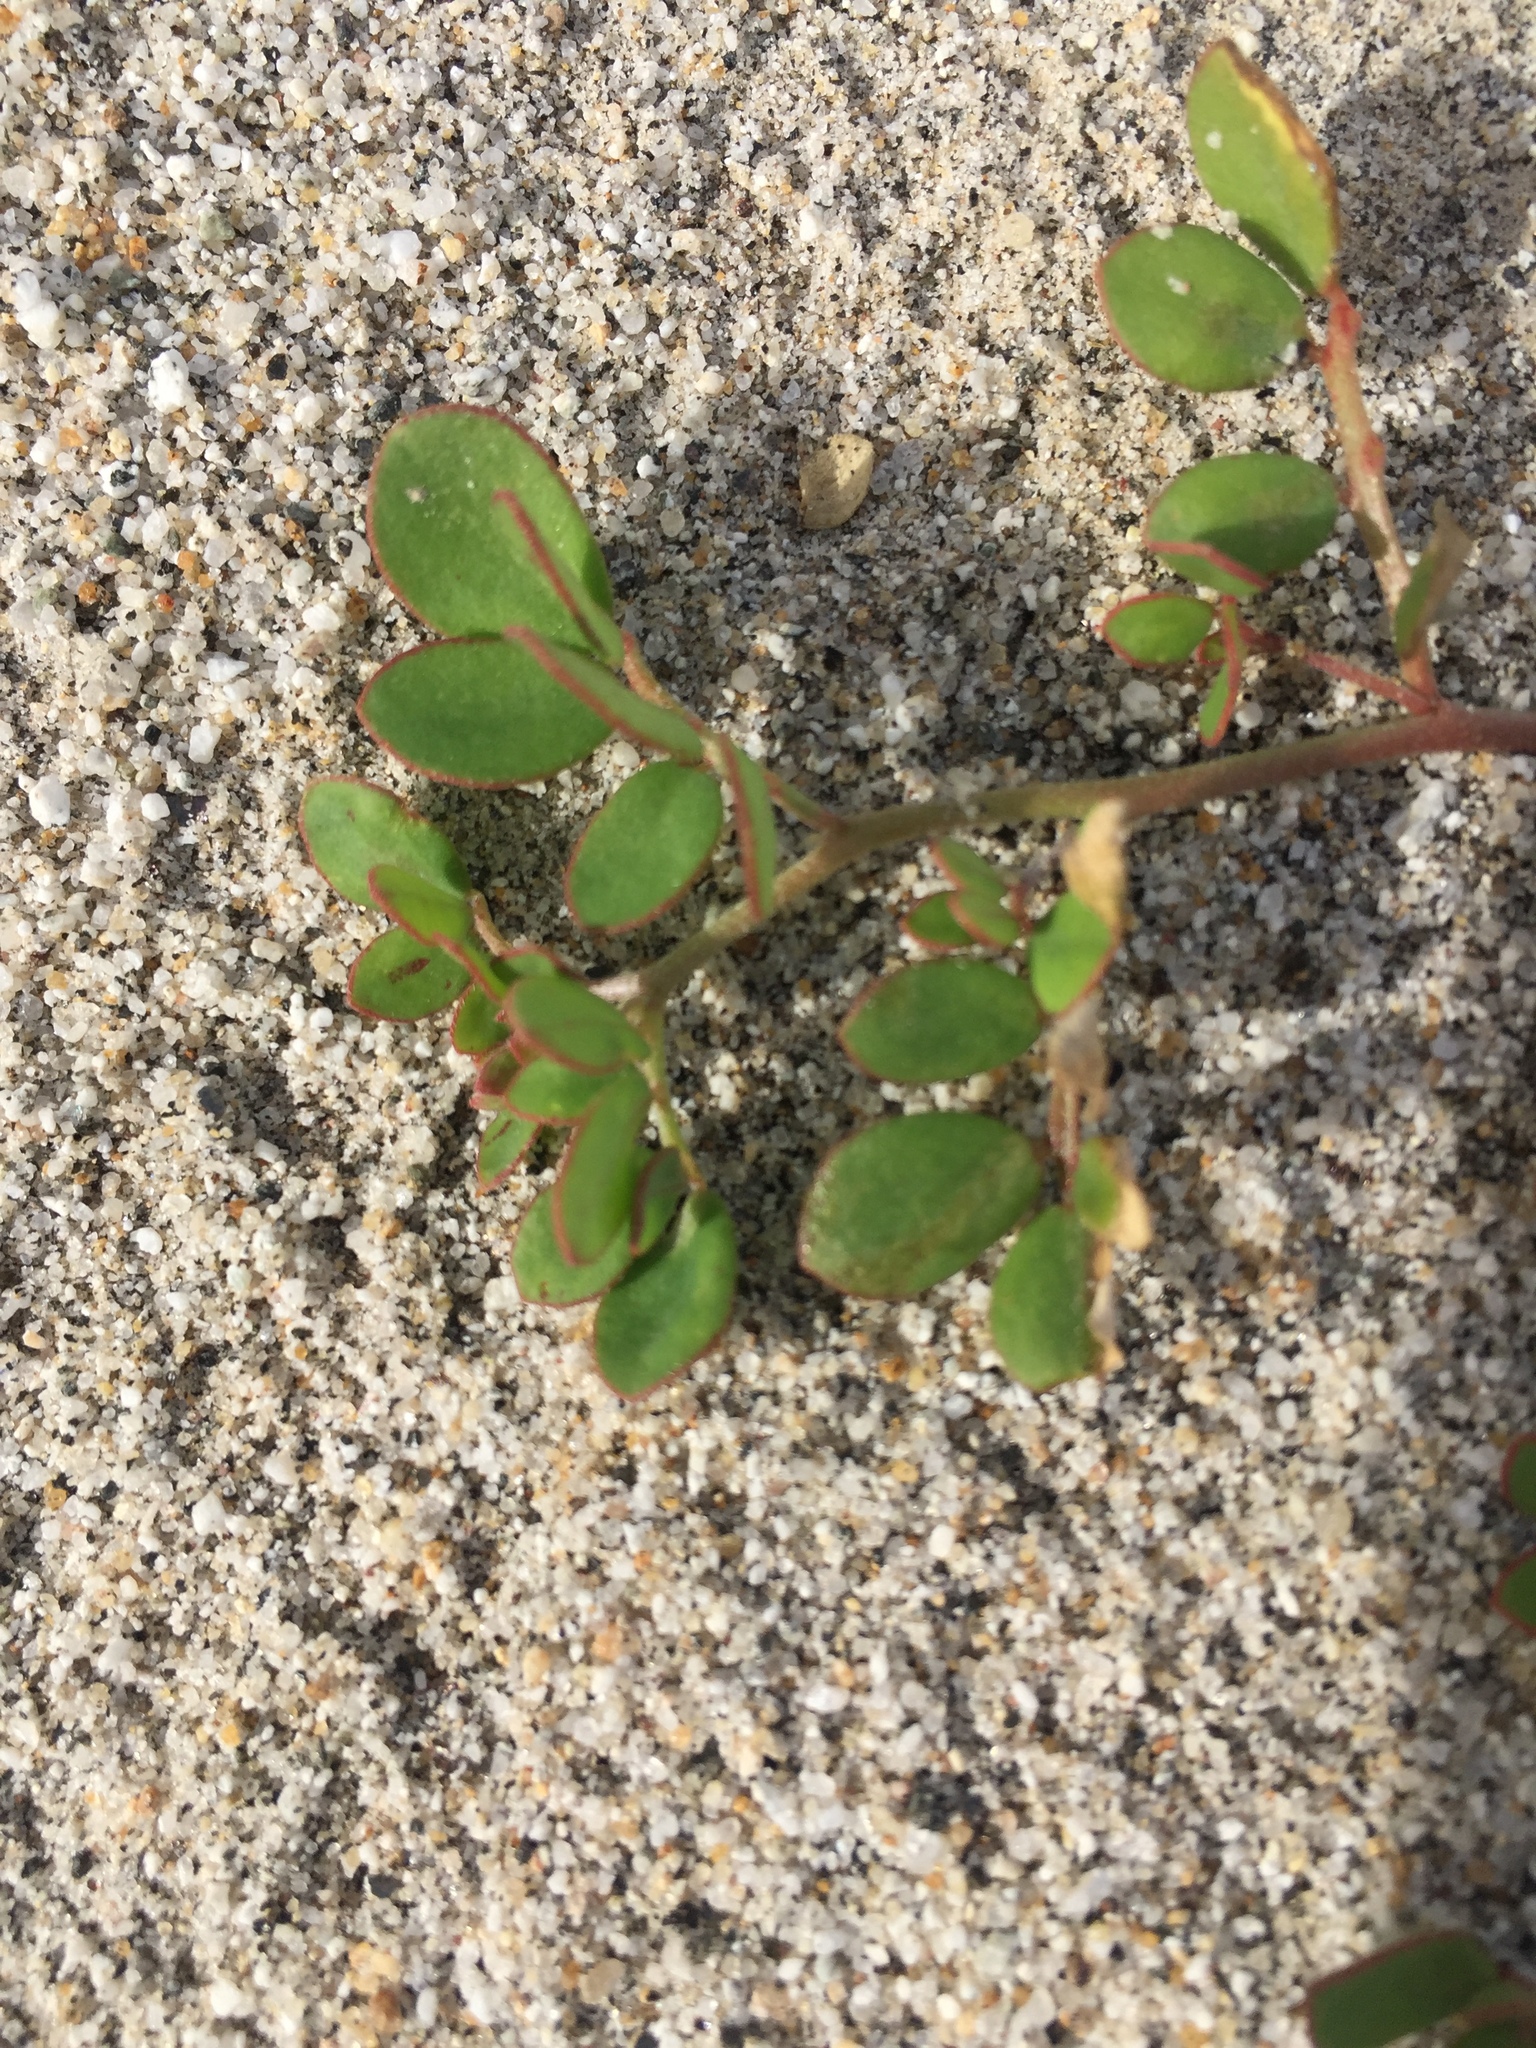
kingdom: Plantae
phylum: Tracheophyta
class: Magnoliopsida
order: Fabales
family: Fabaceae
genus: Acmispon
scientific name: Acmispon maritimus
